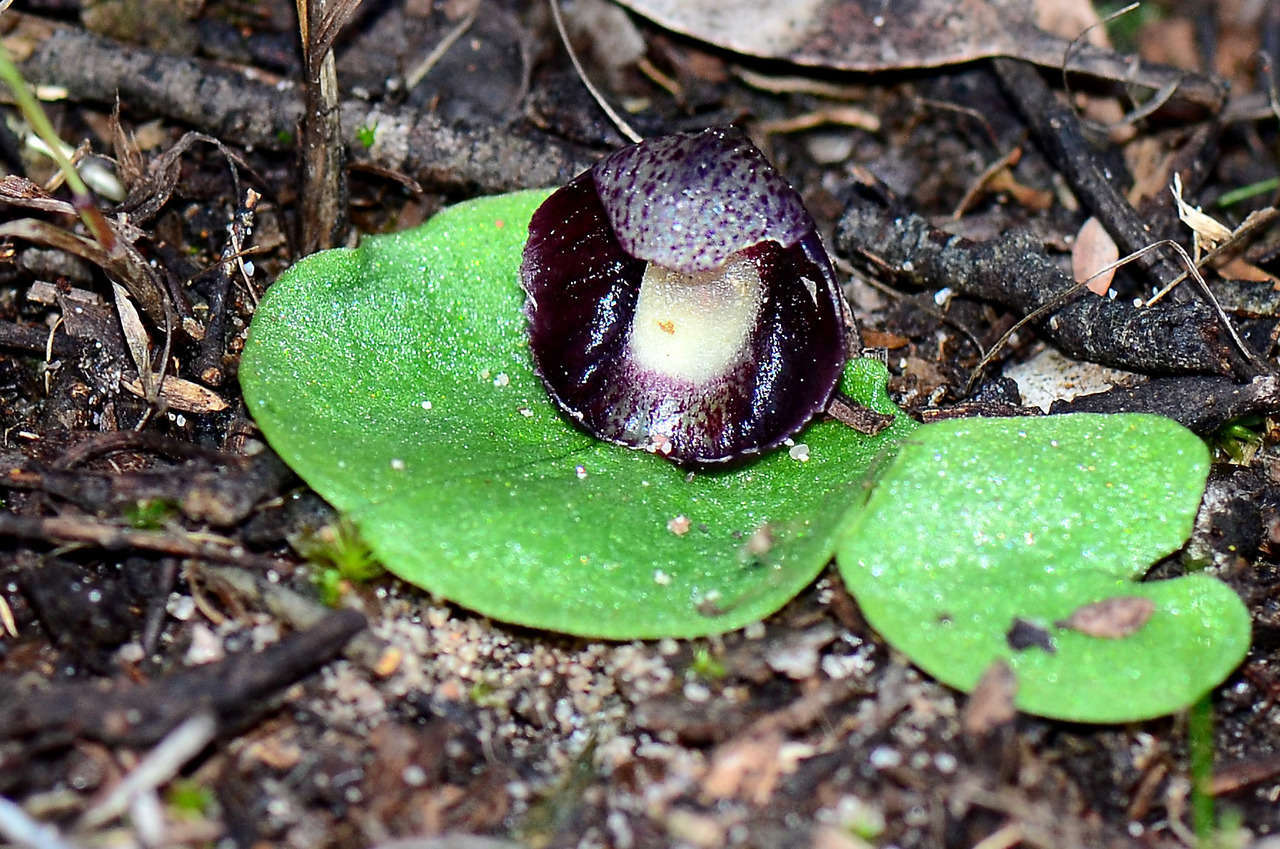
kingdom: Plantae
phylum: Tracheophyta
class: Liliopsida
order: Asparagales
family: Orchidaceae
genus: Corybas
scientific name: Corybas incurvus
